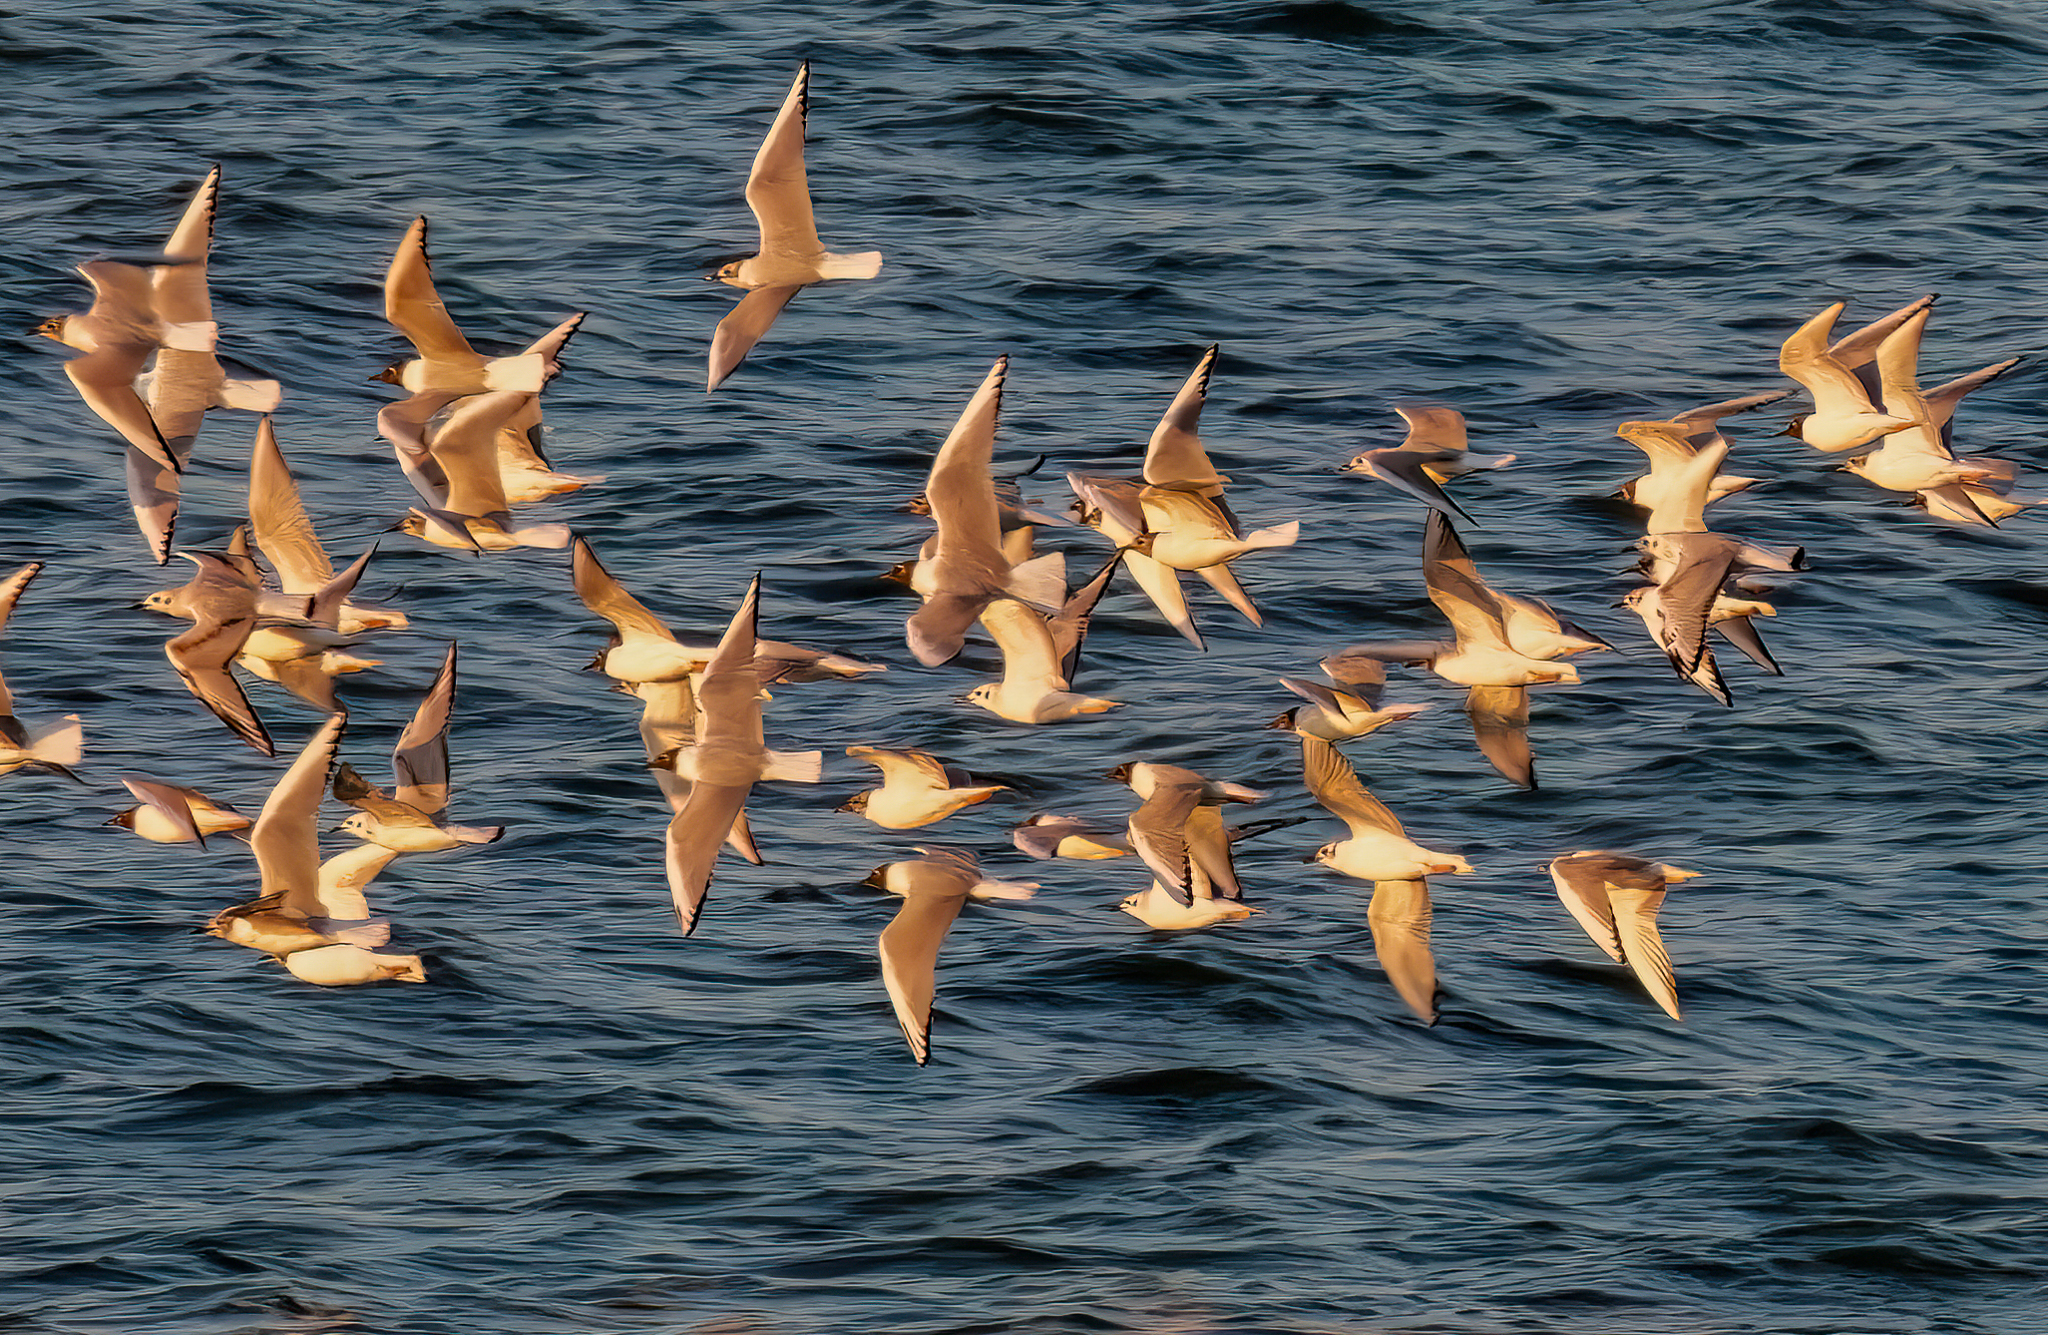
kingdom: Animalia
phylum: Chordata
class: Aves
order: Charadriiformes
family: Laridae
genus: Chroicocephalus
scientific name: Chroicocephalus philadelphia
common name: Bonaparte's gull
